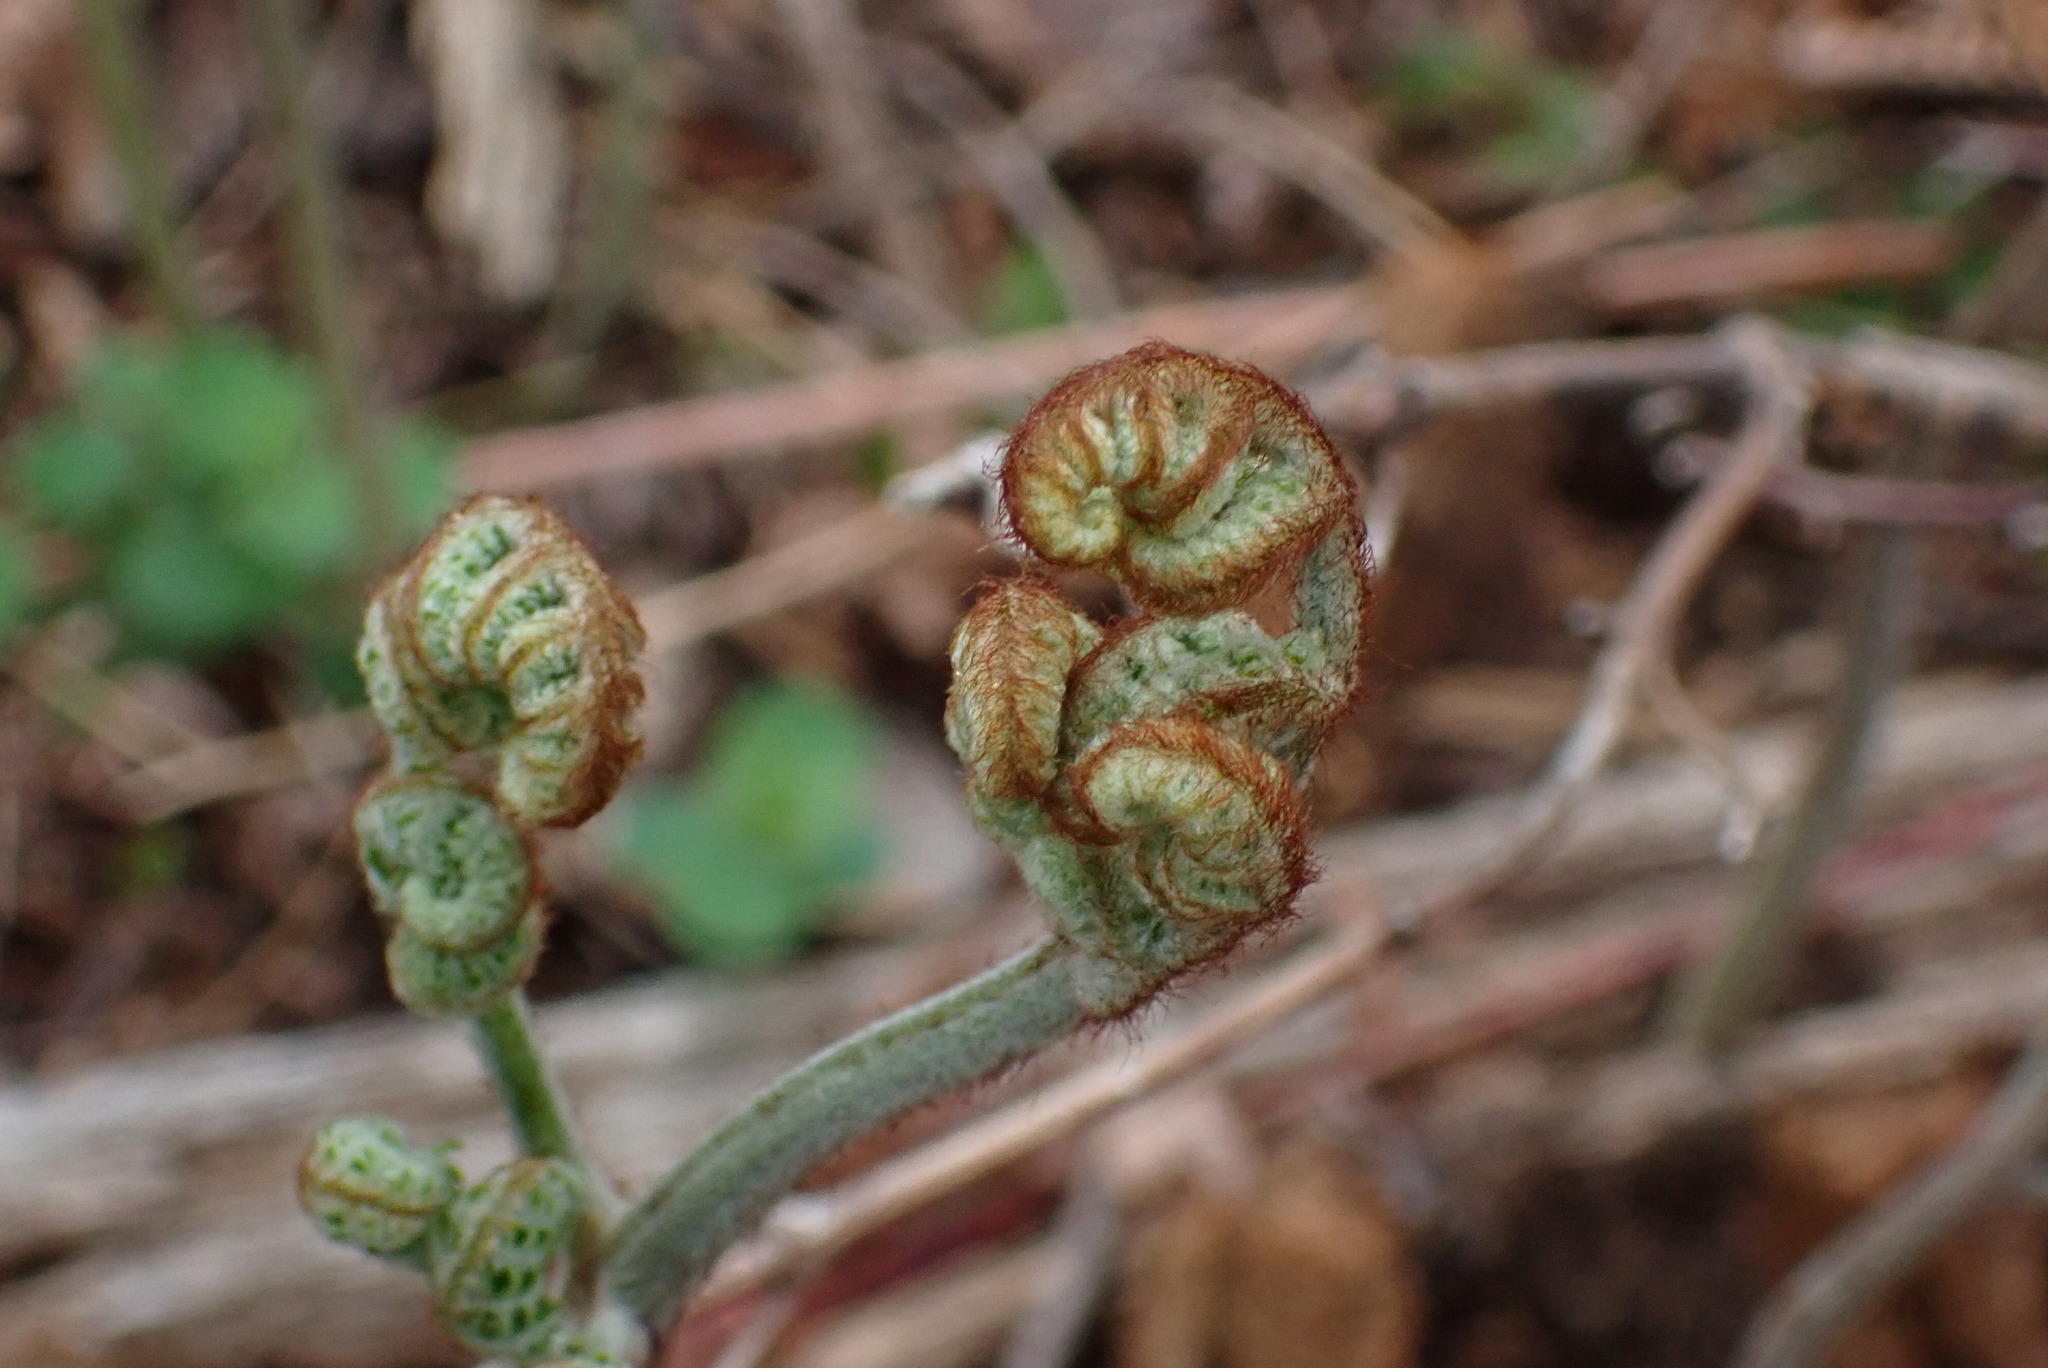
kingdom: Plantae
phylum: Tracheophyta
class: Polypodiopsida
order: Polypodiales
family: Dennstaedtiaceae
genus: Pteridium
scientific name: Pteridium aquilinum
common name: Bracken
